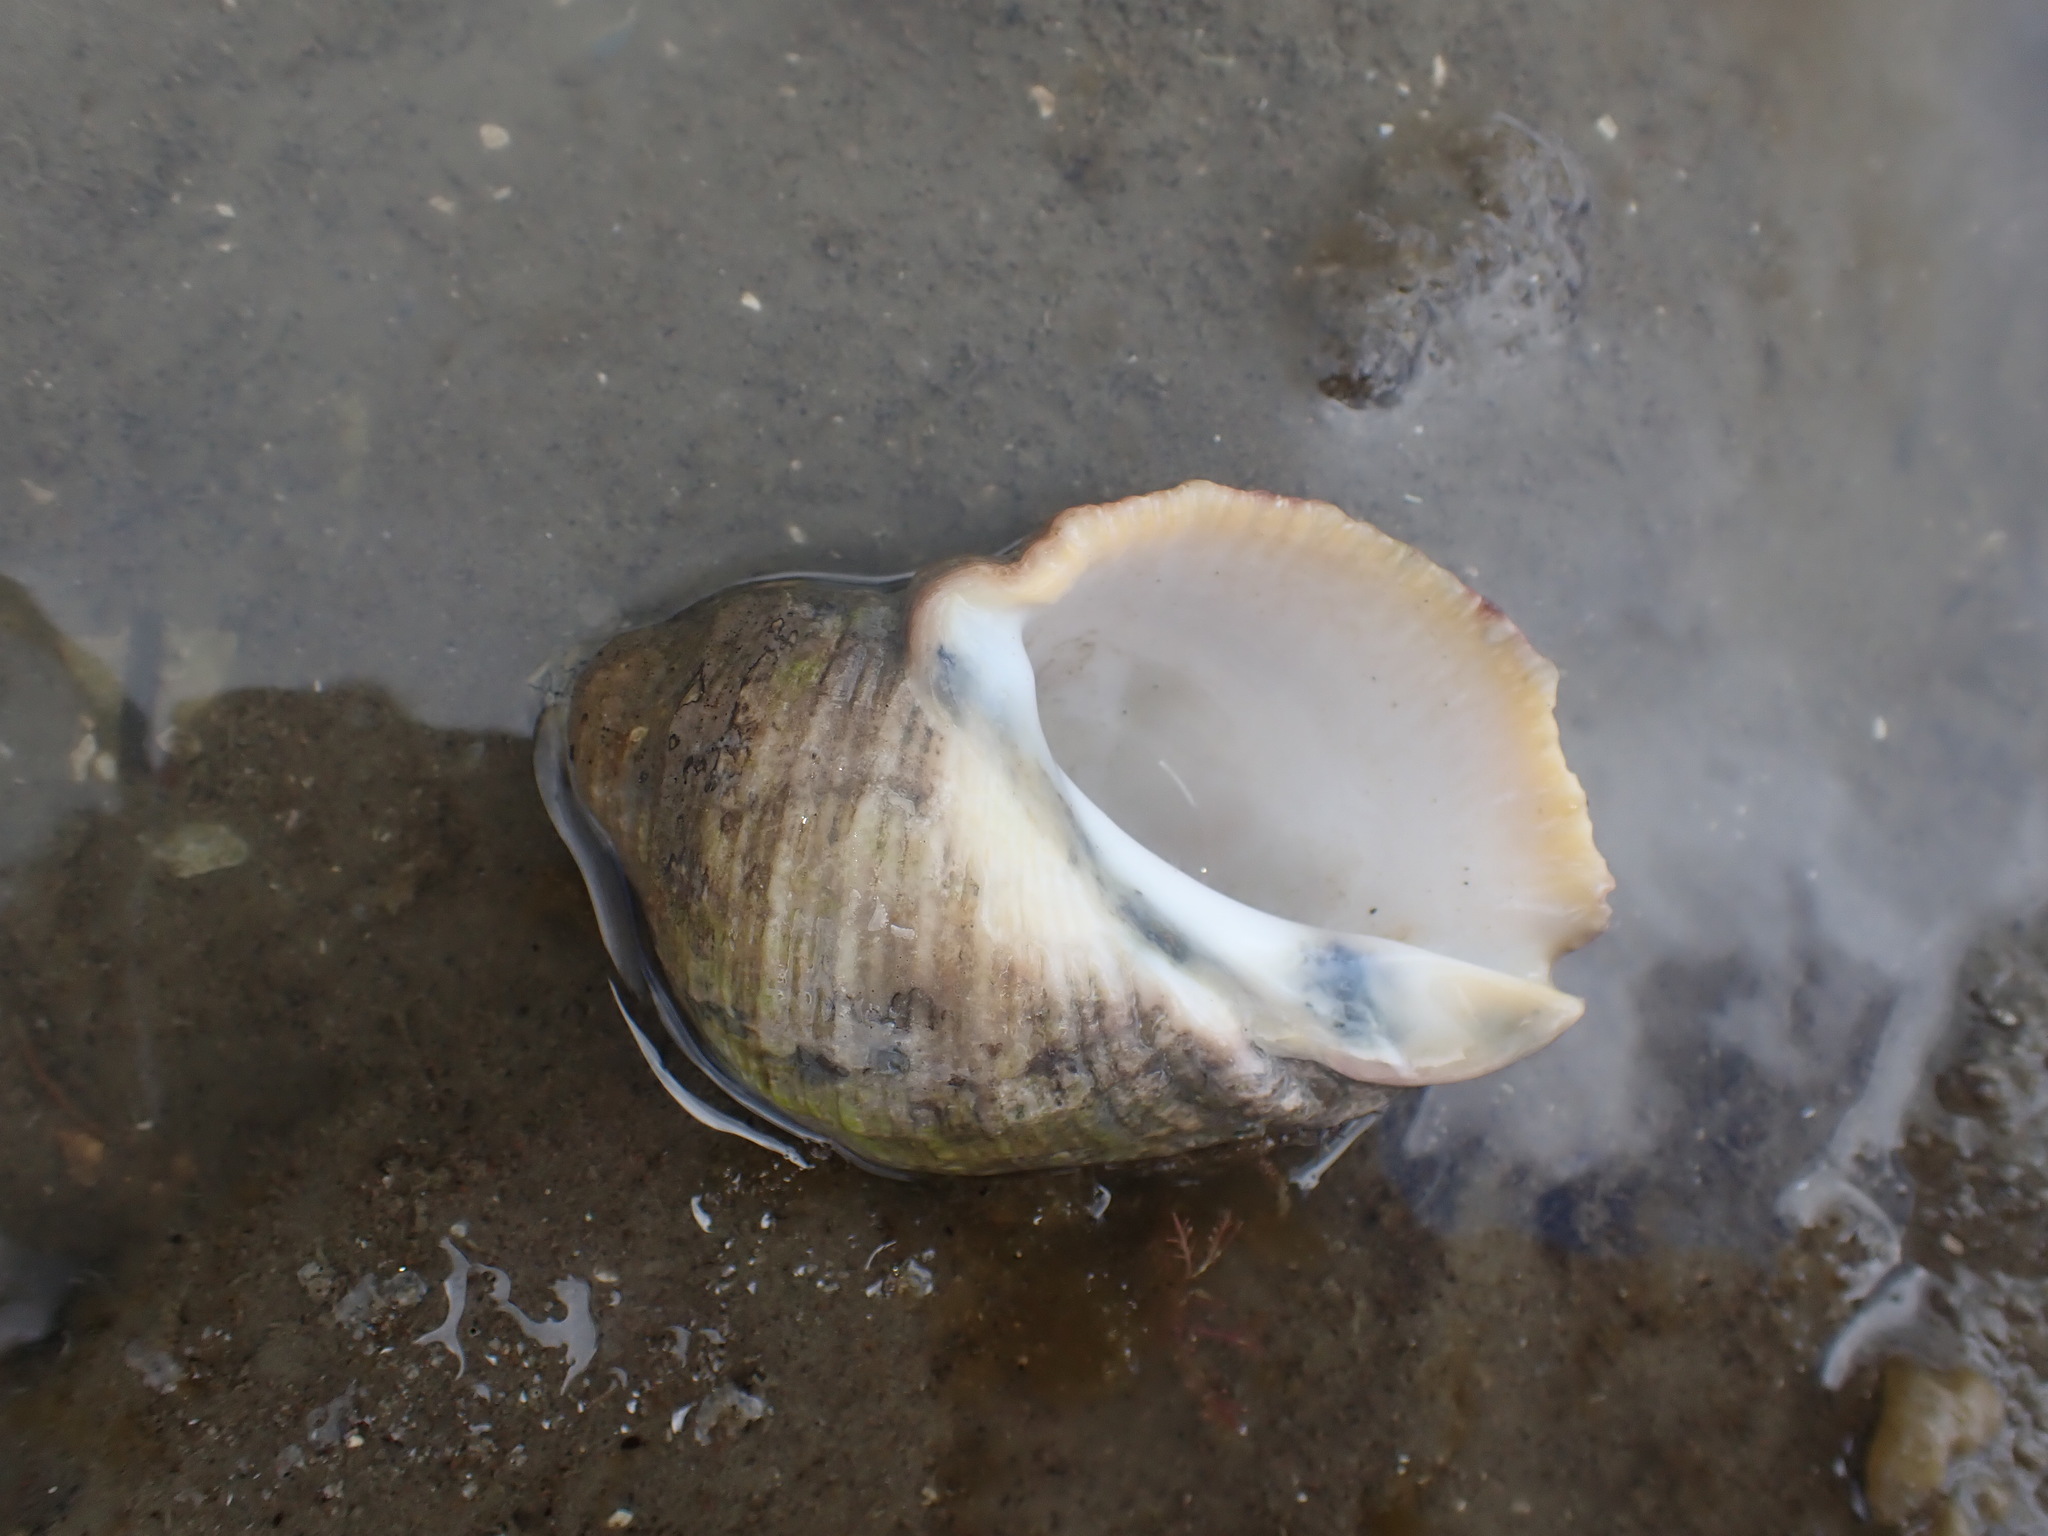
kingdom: Animalia
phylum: Mollusca
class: Gastropoda
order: Neogastropoda
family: Muricidae
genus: Dicathais
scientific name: Dicathais orbita
